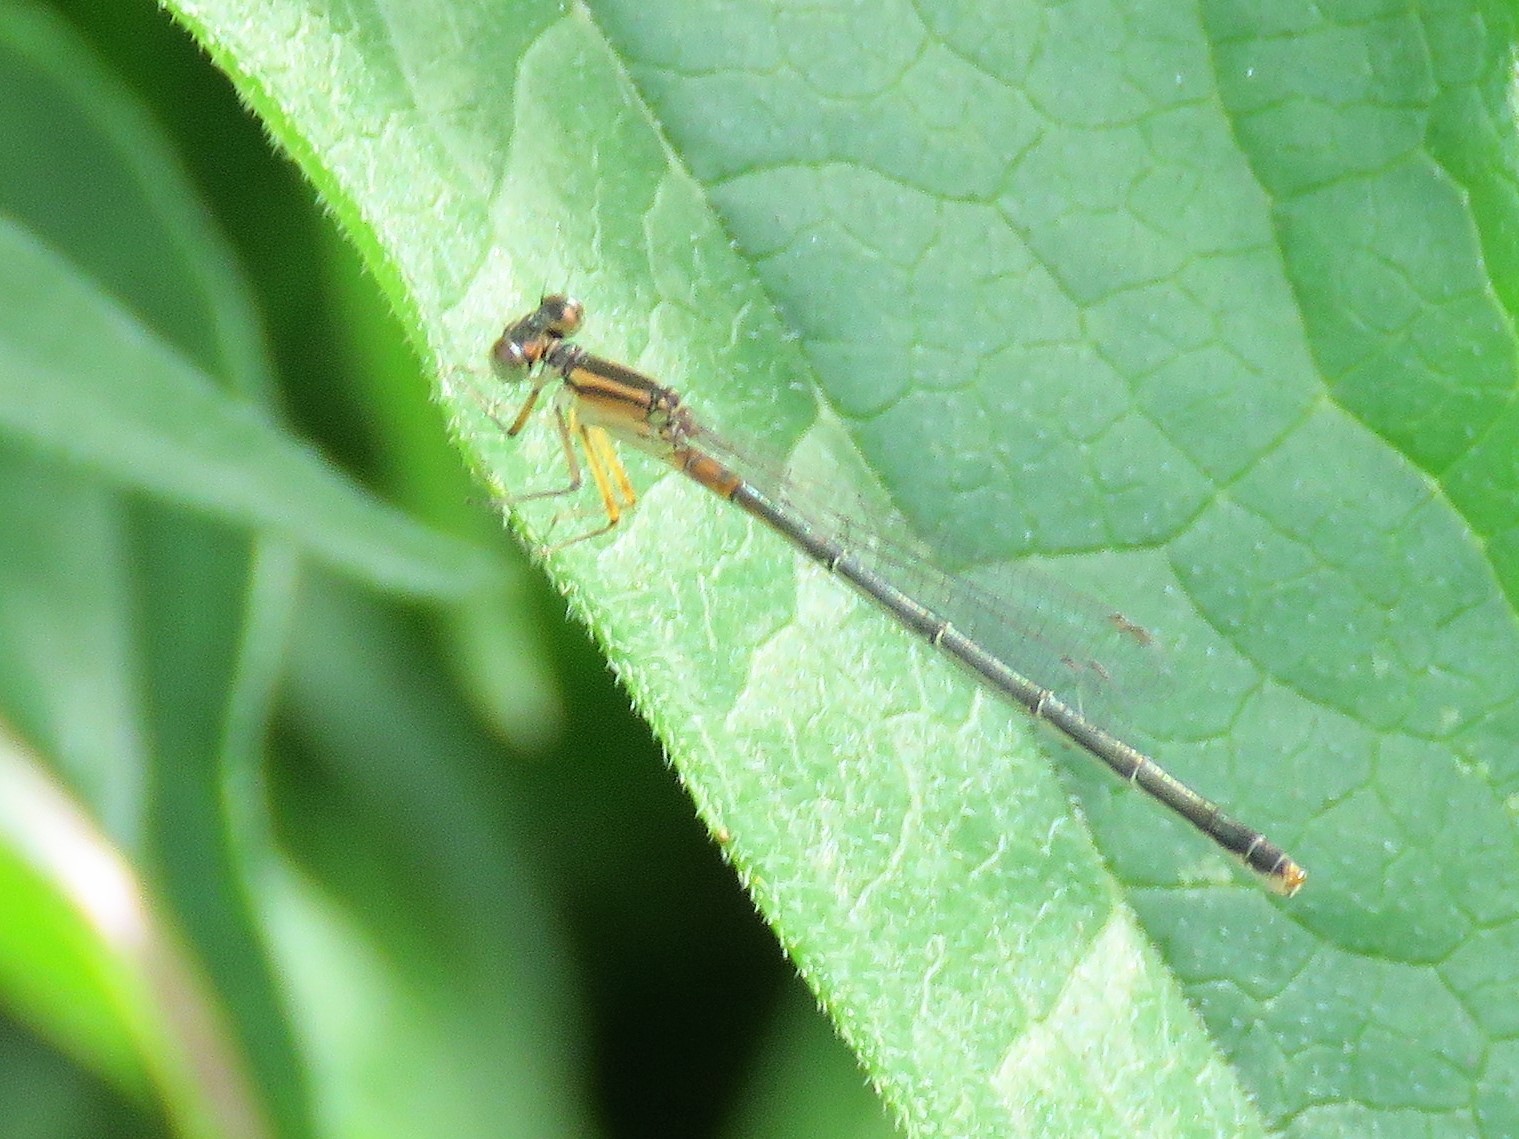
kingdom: Animalia
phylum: Arthropoda
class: Insecta
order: Odonata
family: Coenagrionidae
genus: Ischnura
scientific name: Ischnura verticalis
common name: Eastern forktail
